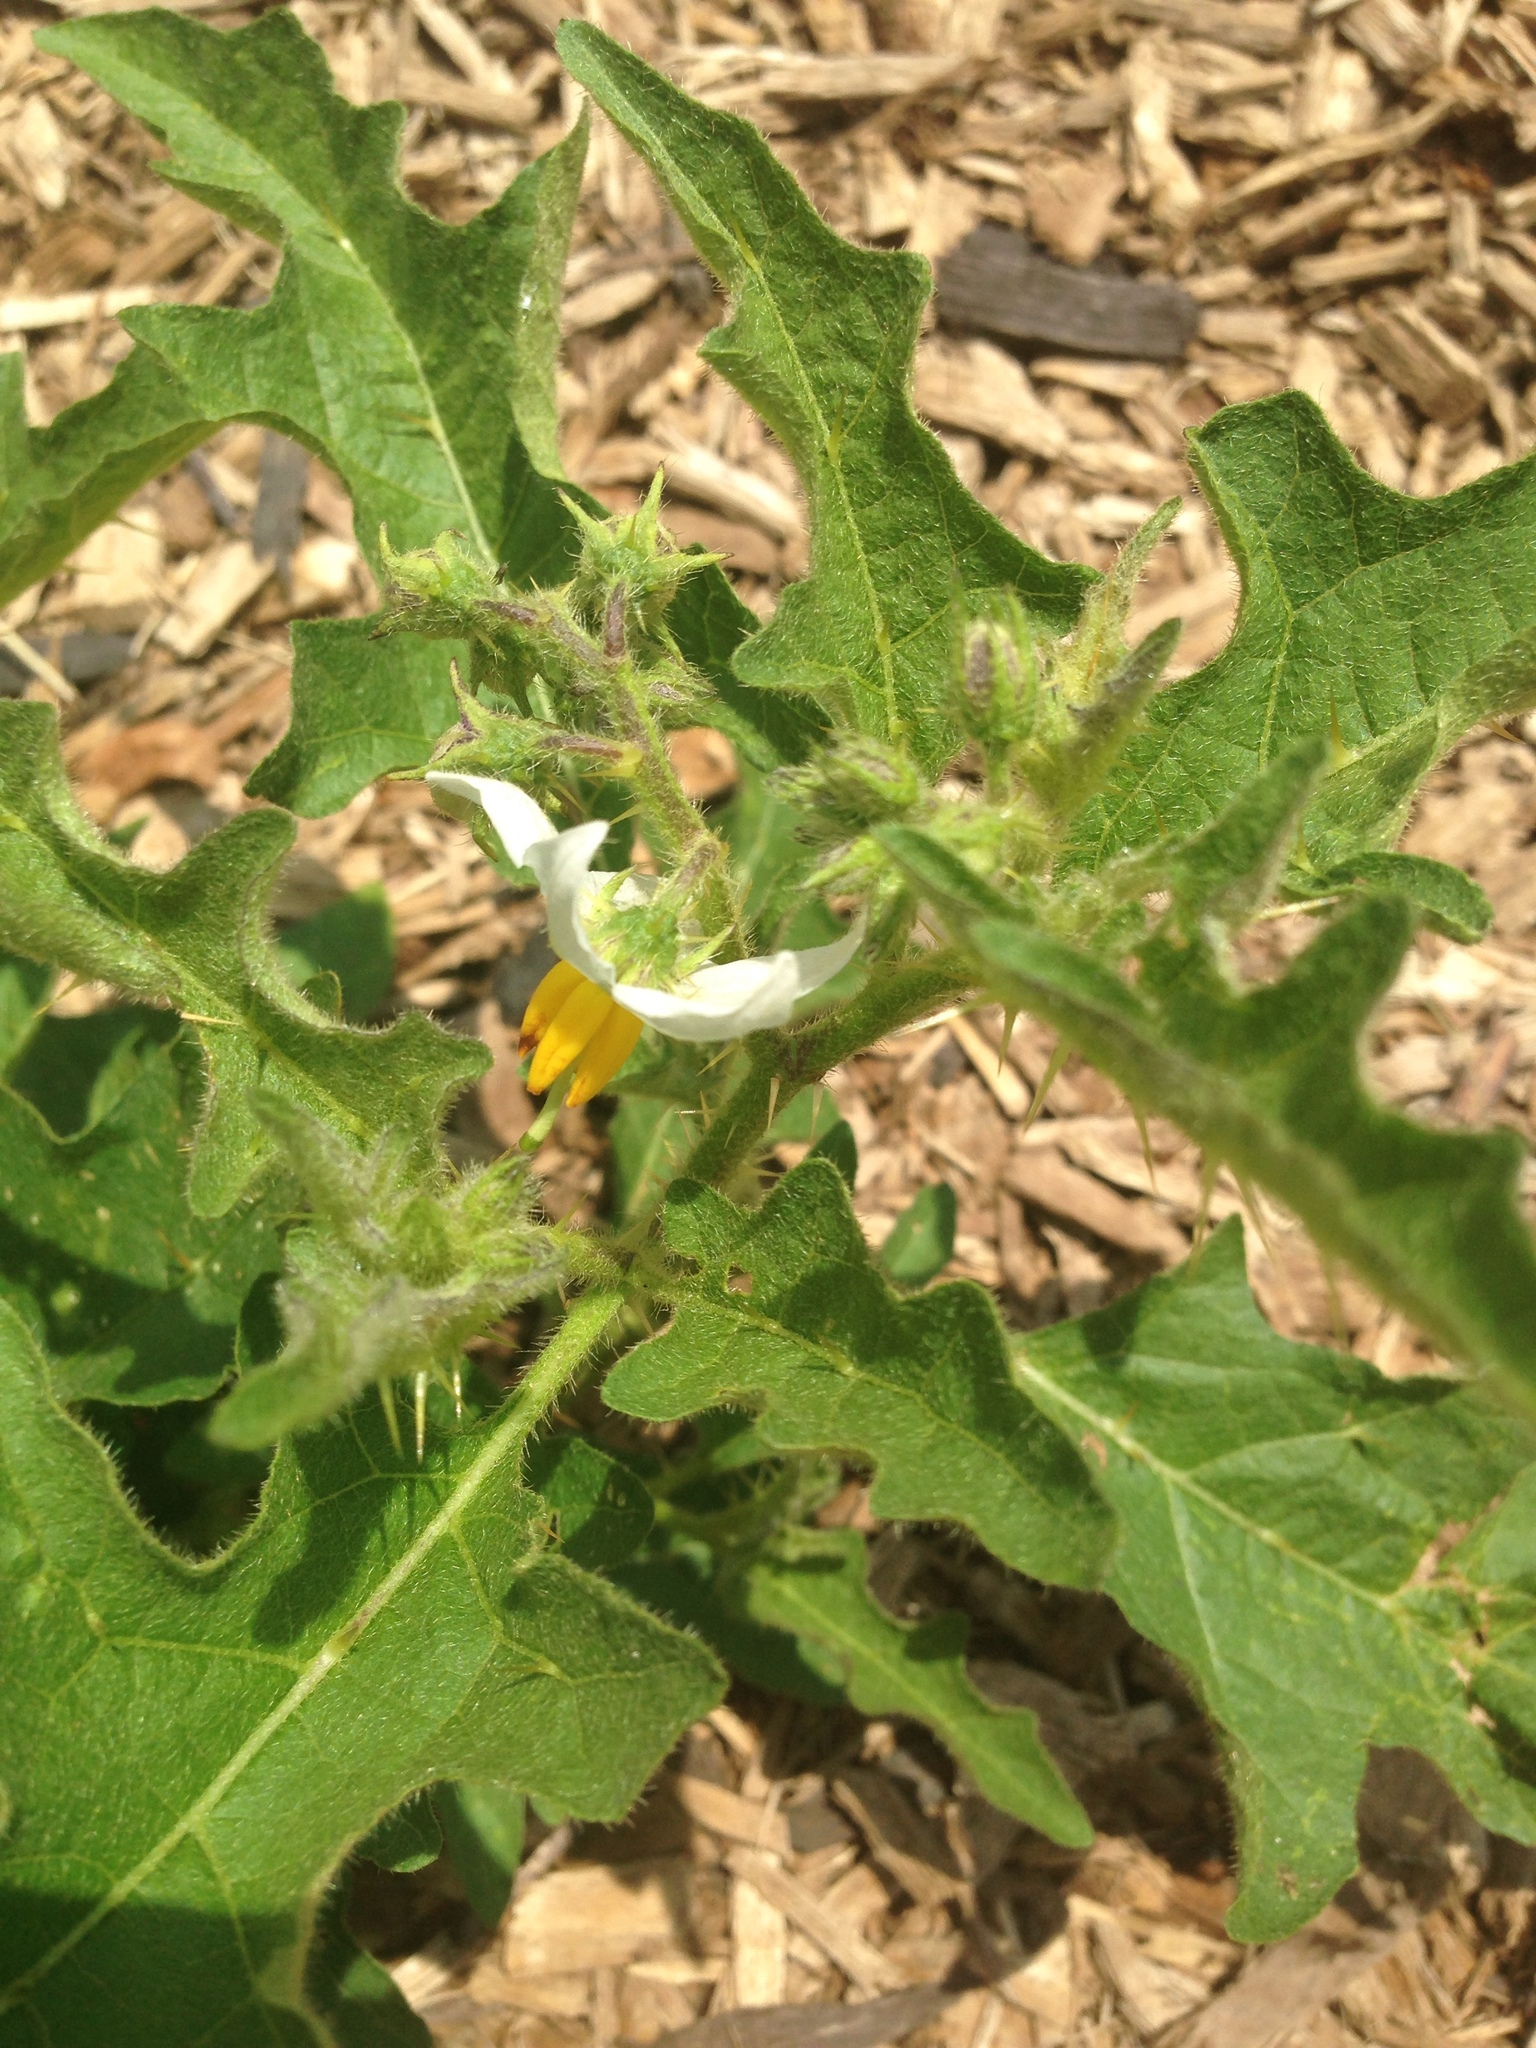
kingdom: Plantae
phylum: Tracheophyta
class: Magnoliopsida
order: Solanales
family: Solanaceae
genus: Solanum
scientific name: Solanum carolinense
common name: Horse-nettle
